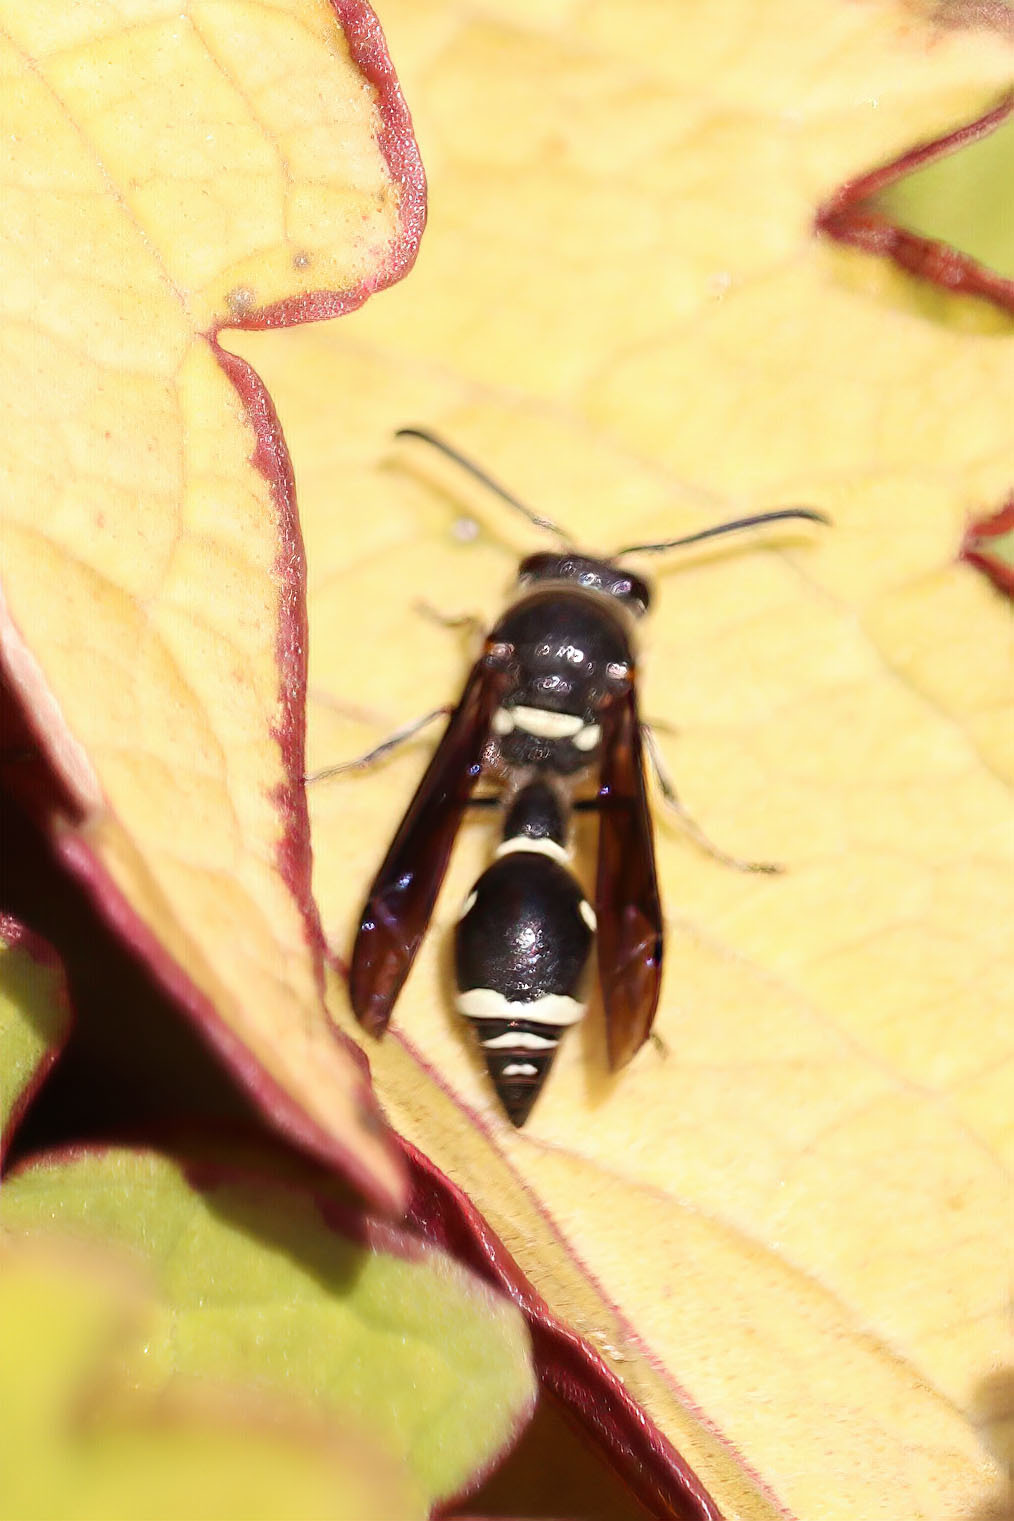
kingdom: Animalia
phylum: Arthropoda
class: Insecta
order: Hymenoptera
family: Vespidae
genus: Eumenes
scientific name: Eumenes fraternus
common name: Fraternal potter wasp
